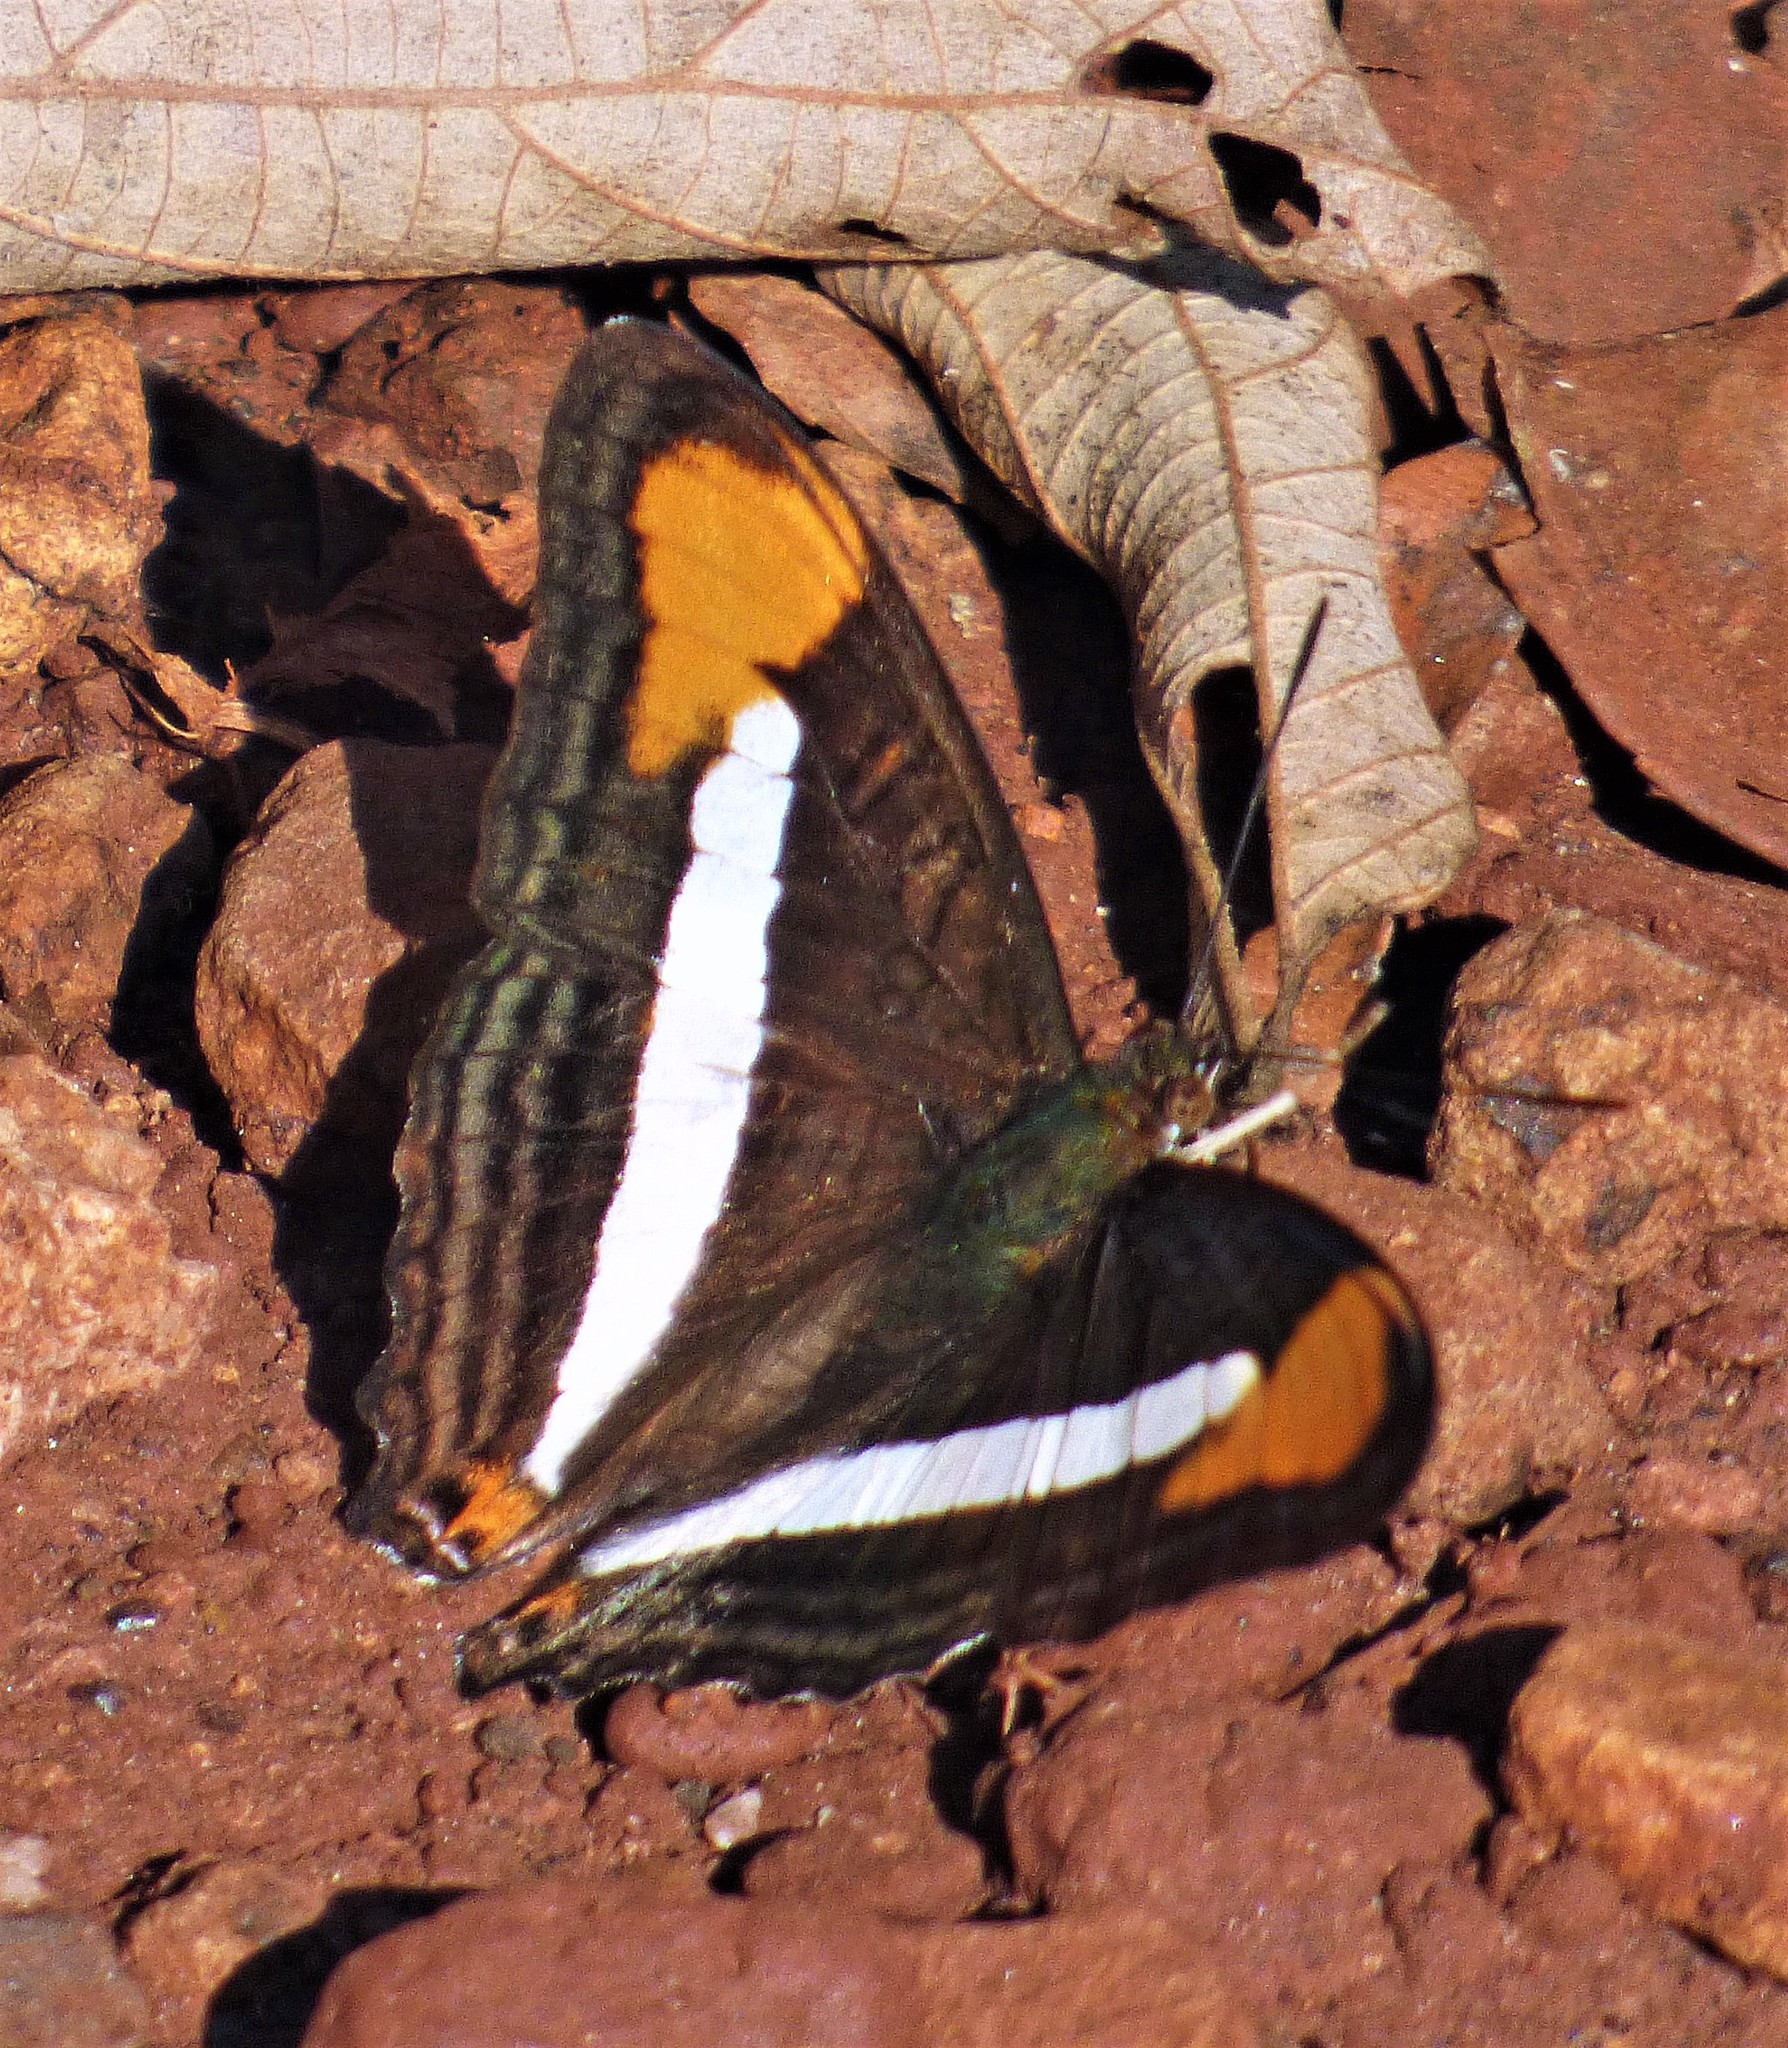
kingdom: Animalia
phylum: Arthropoda
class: Insecta
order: Lepidoptera
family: Nymphalidae
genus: Limenitis
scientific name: Limenitis epizygis
